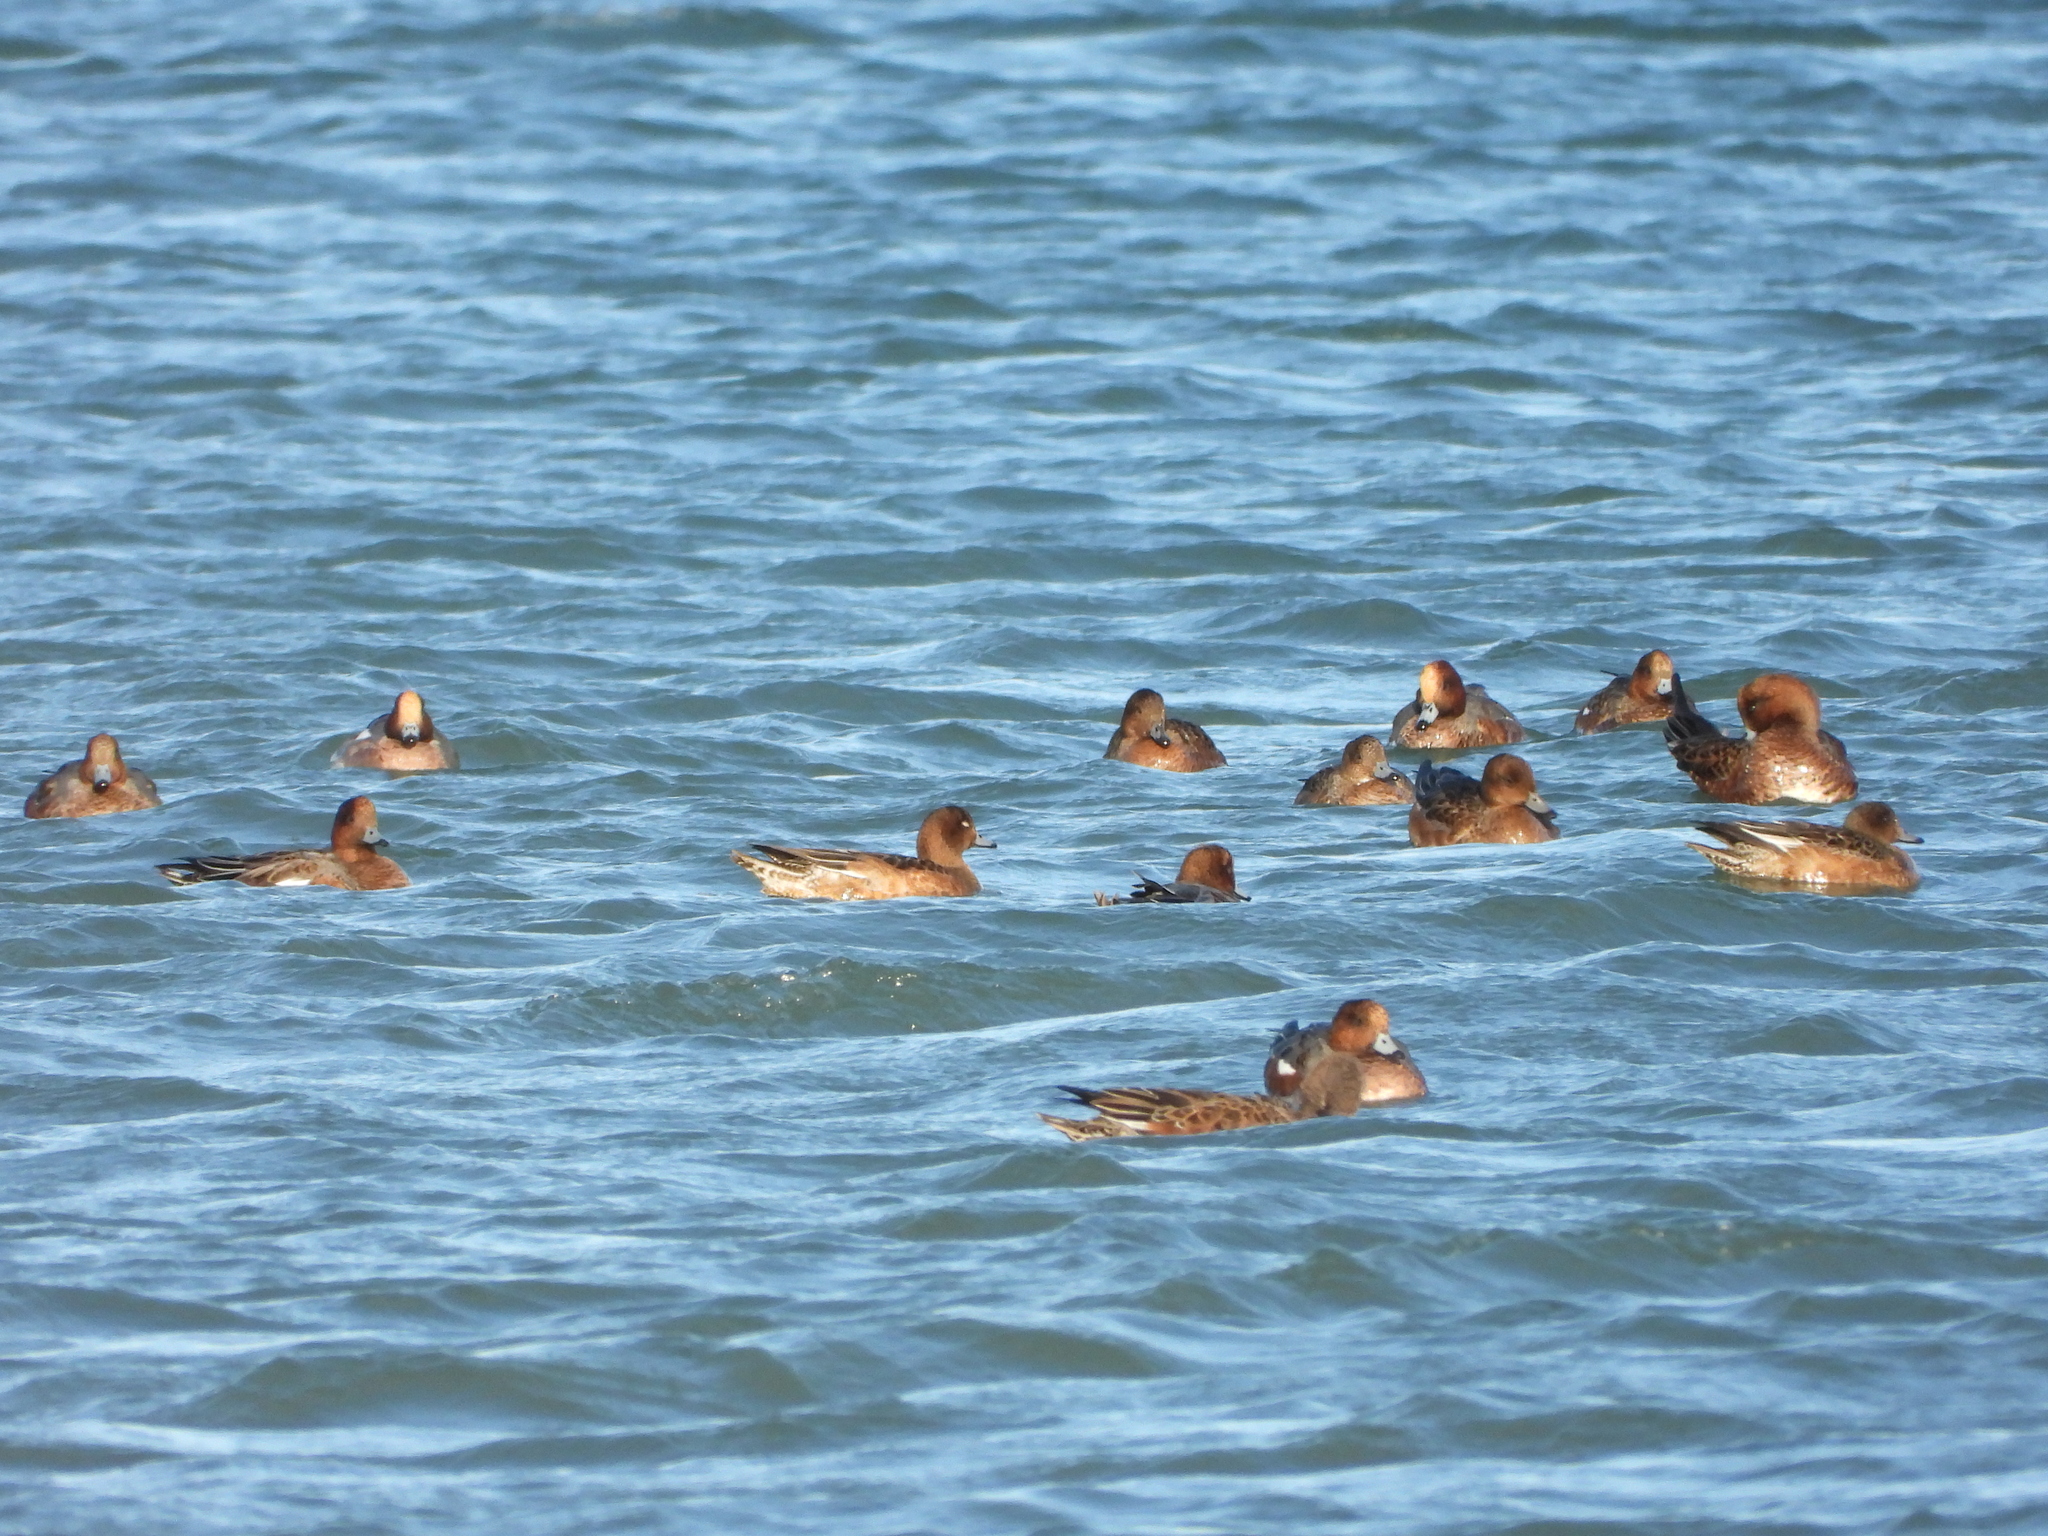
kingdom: Animalia
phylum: Chordata
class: Aves
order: Anseriformes
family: Anatidae
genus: Mareca
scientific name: Mareca penelope
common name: Eurasian wigeon
